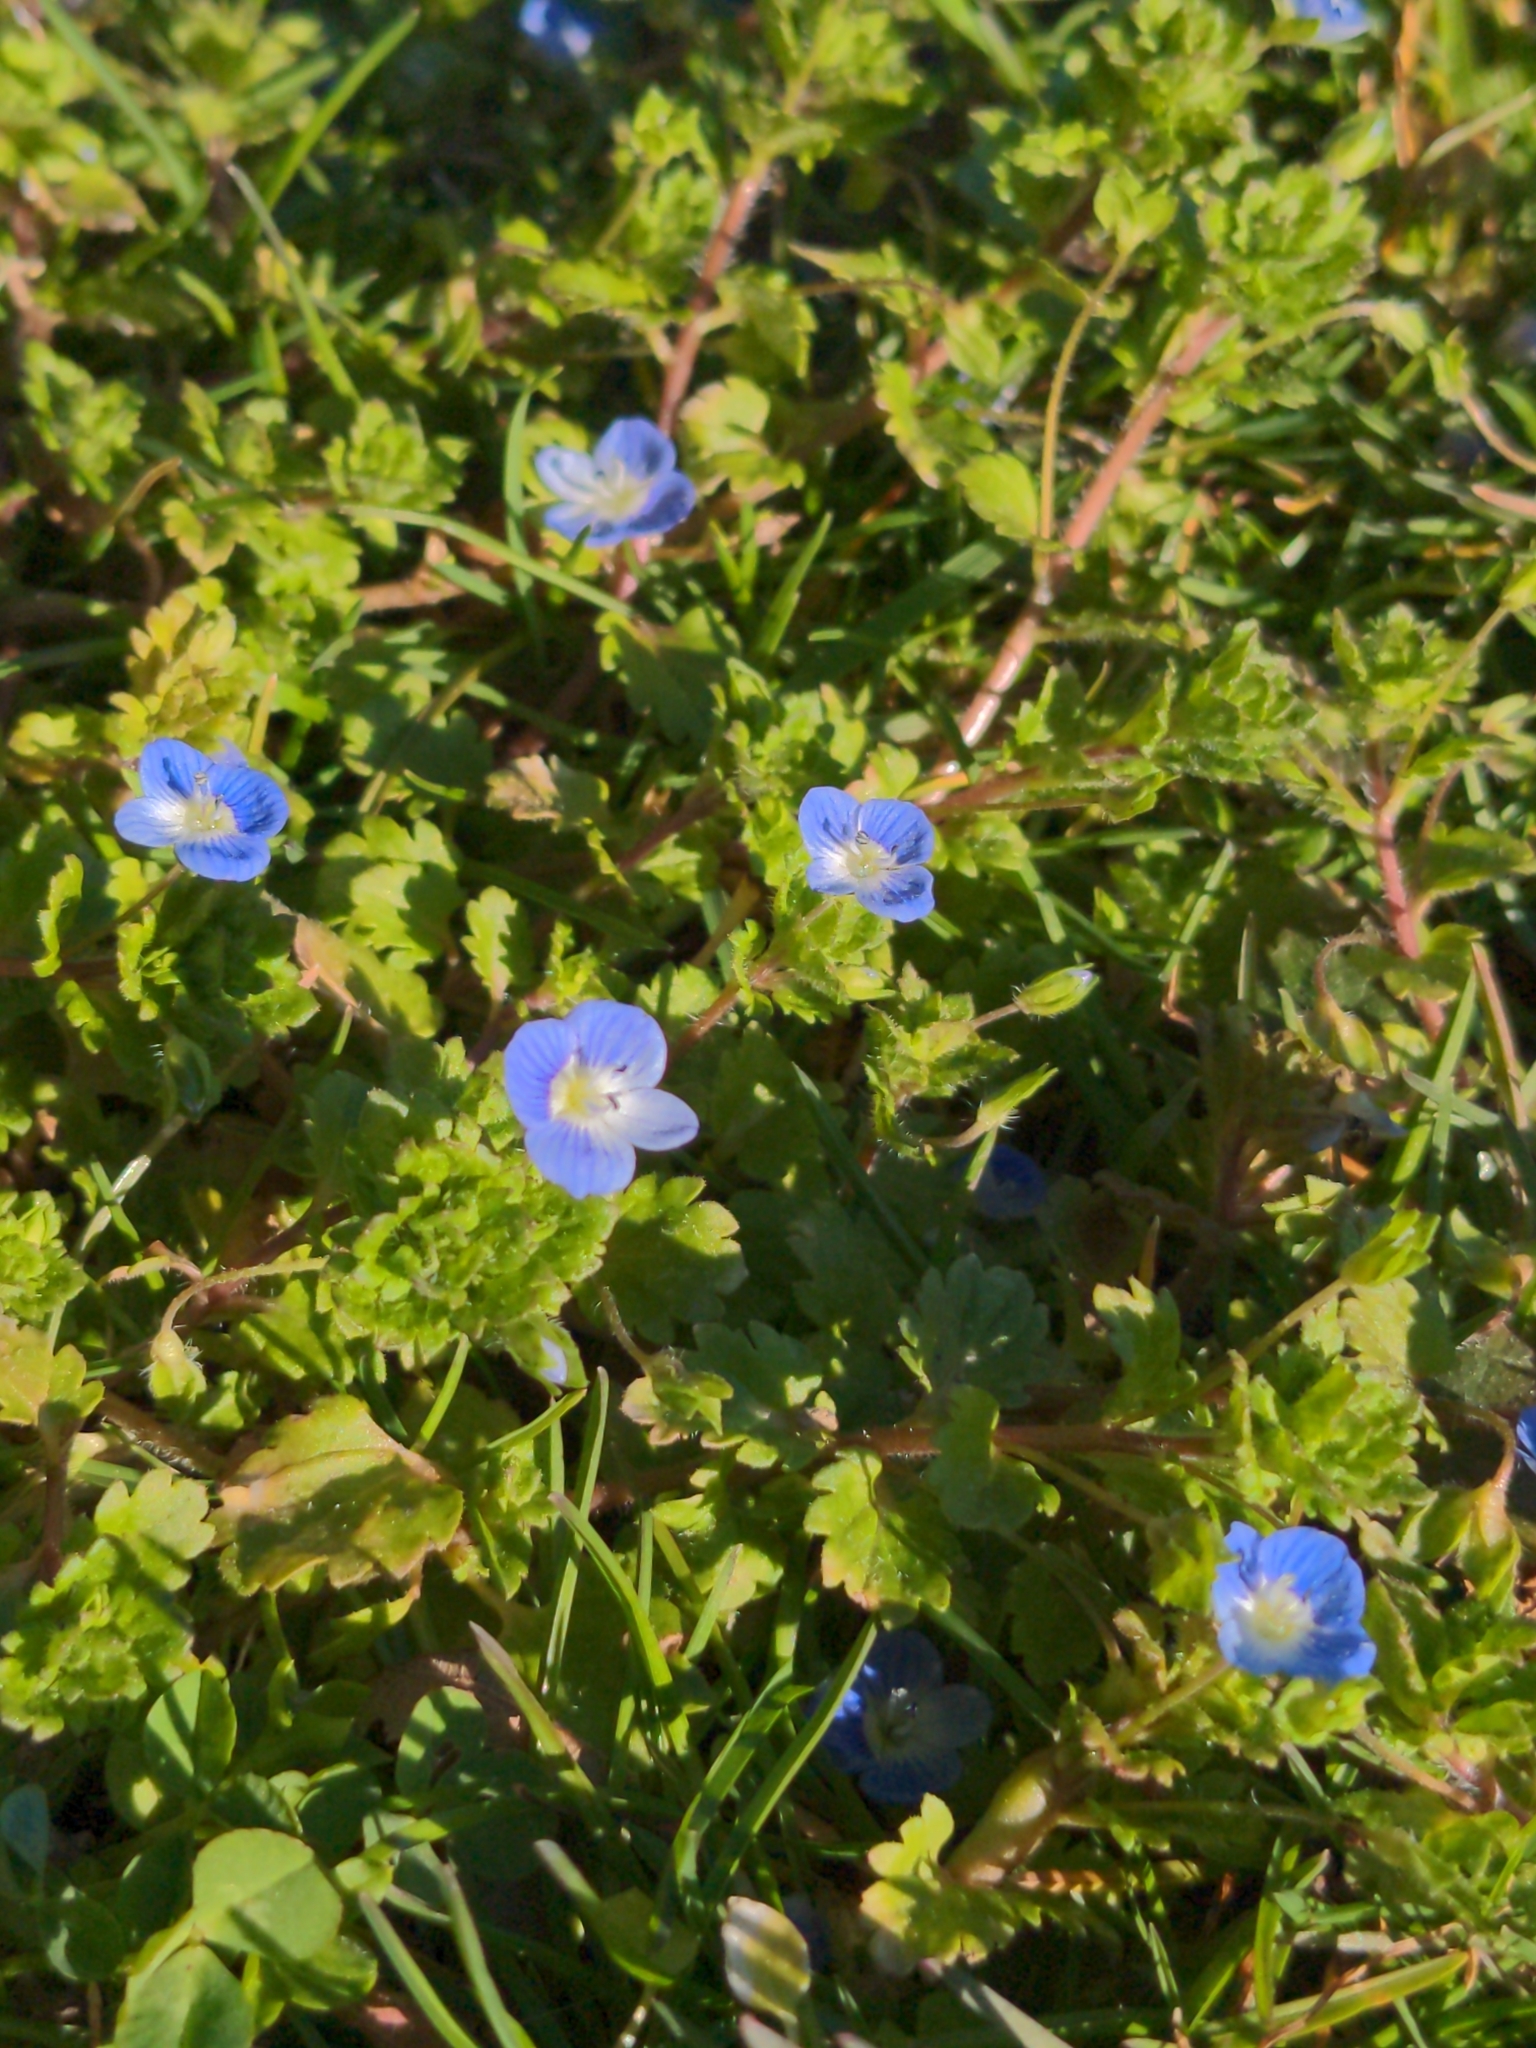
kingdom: Plantae
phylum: Tracheophyta
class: Magnoliopsida
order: Lamiales
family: Plantaginaceae
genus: Veronica
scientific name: Veronica persica
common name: Common field-speedwell
